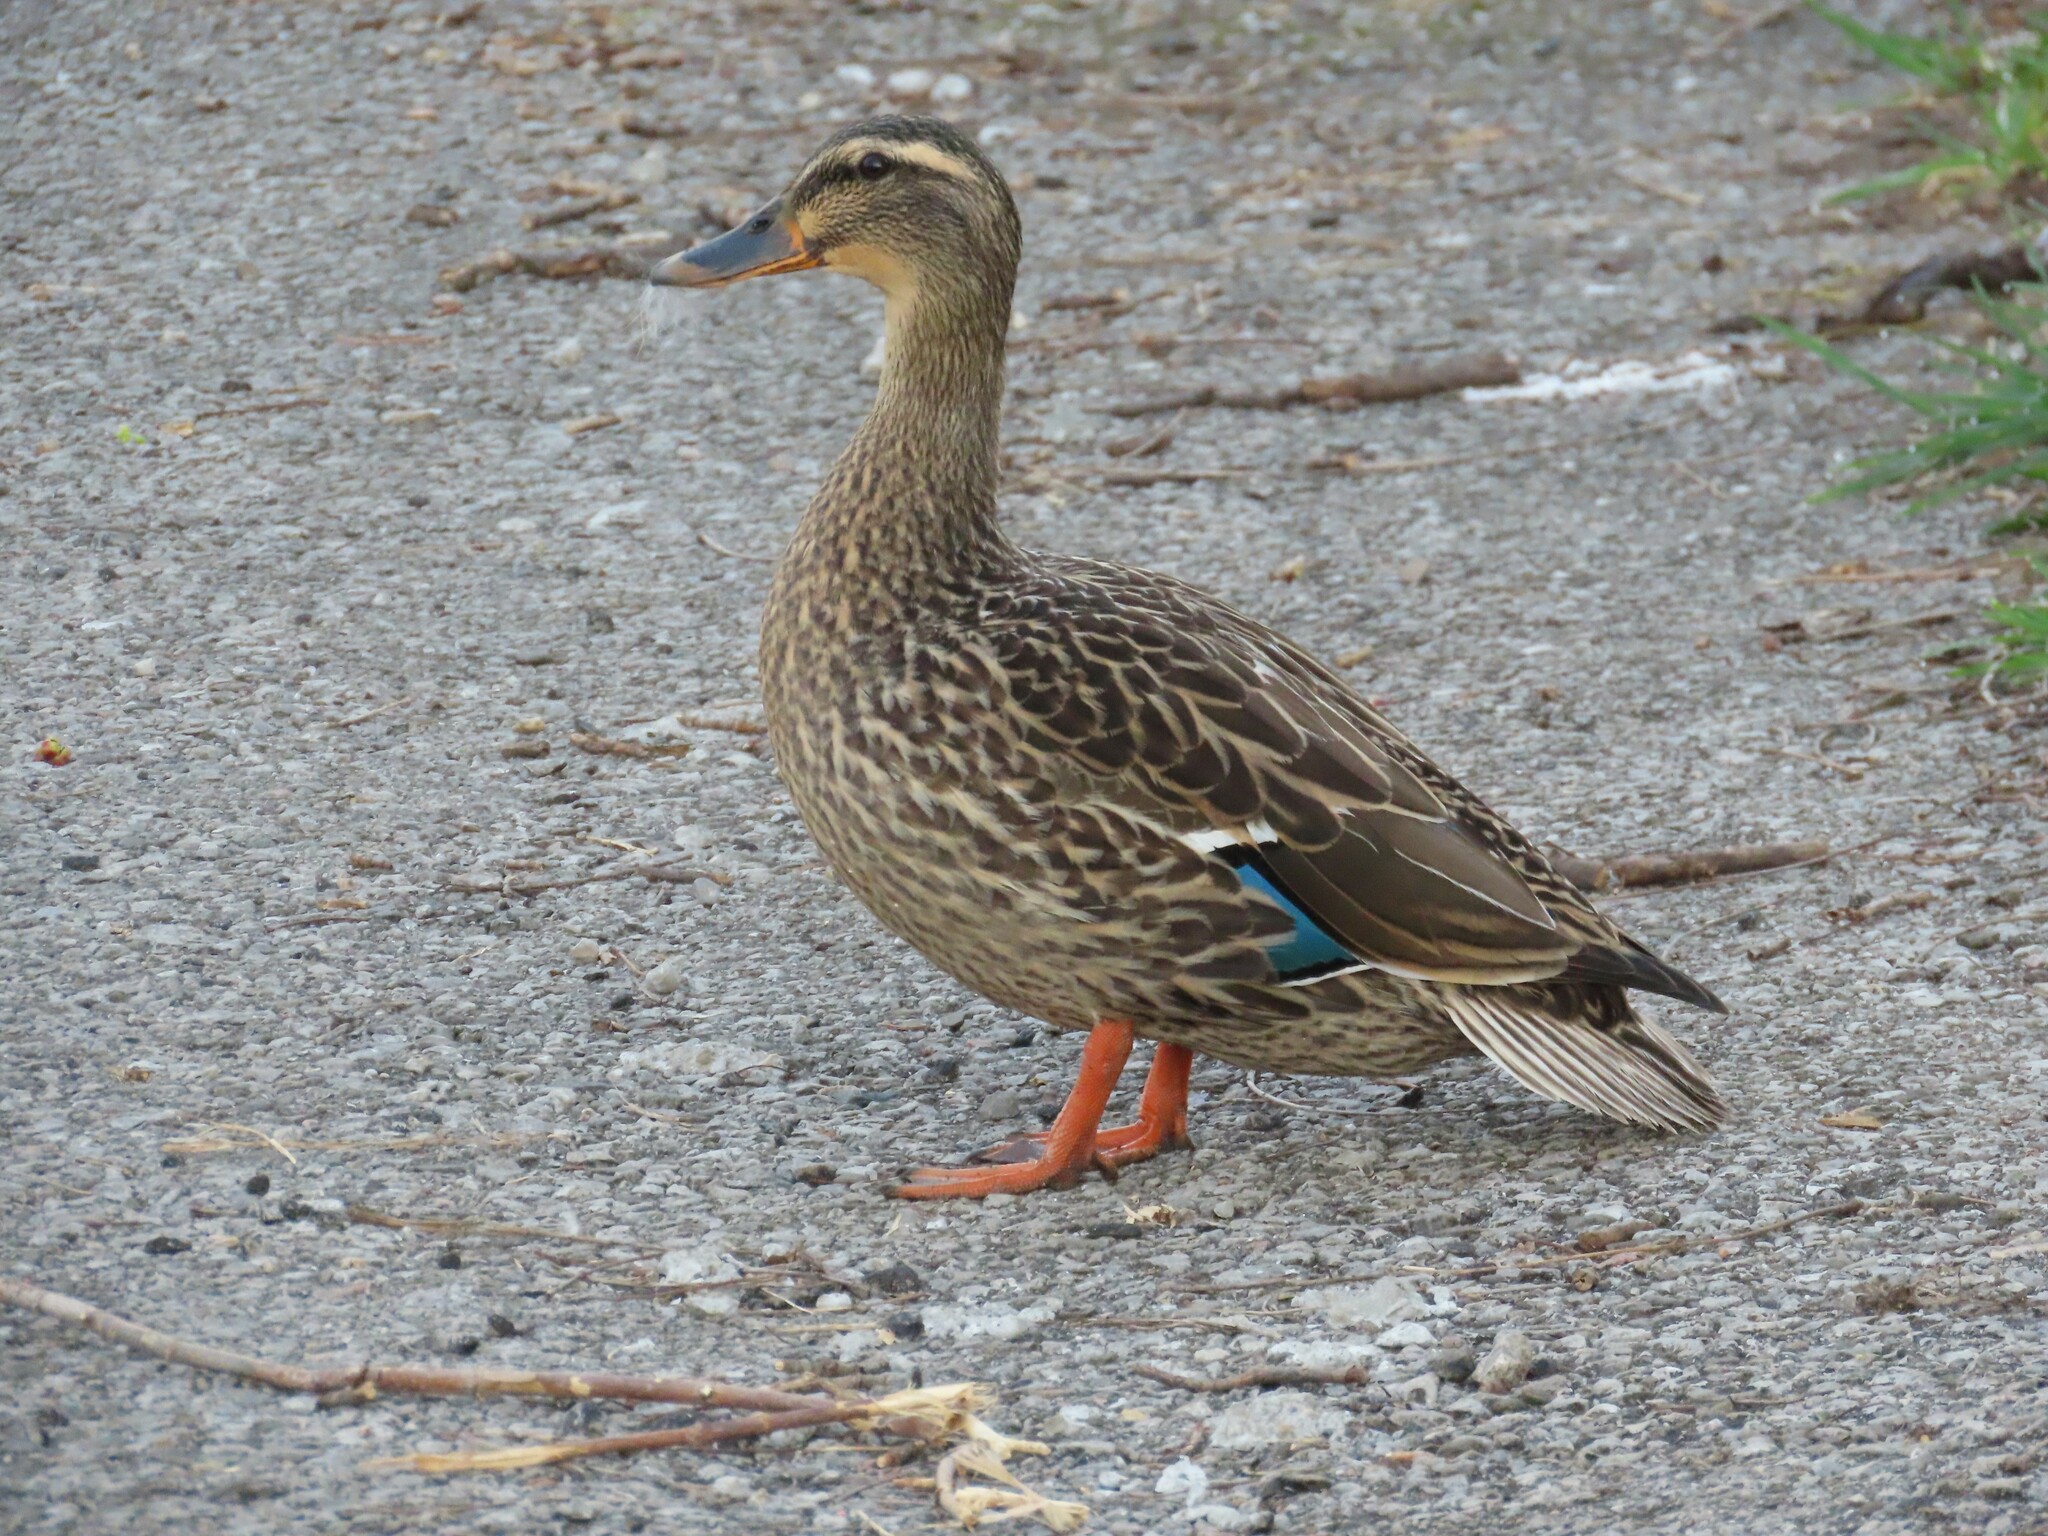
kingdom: Animalia
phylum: Chordata
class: Aves
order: Anseriformes
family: Anatidae
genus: Anas
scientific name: Anas platyrhynchos
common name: Mallard
